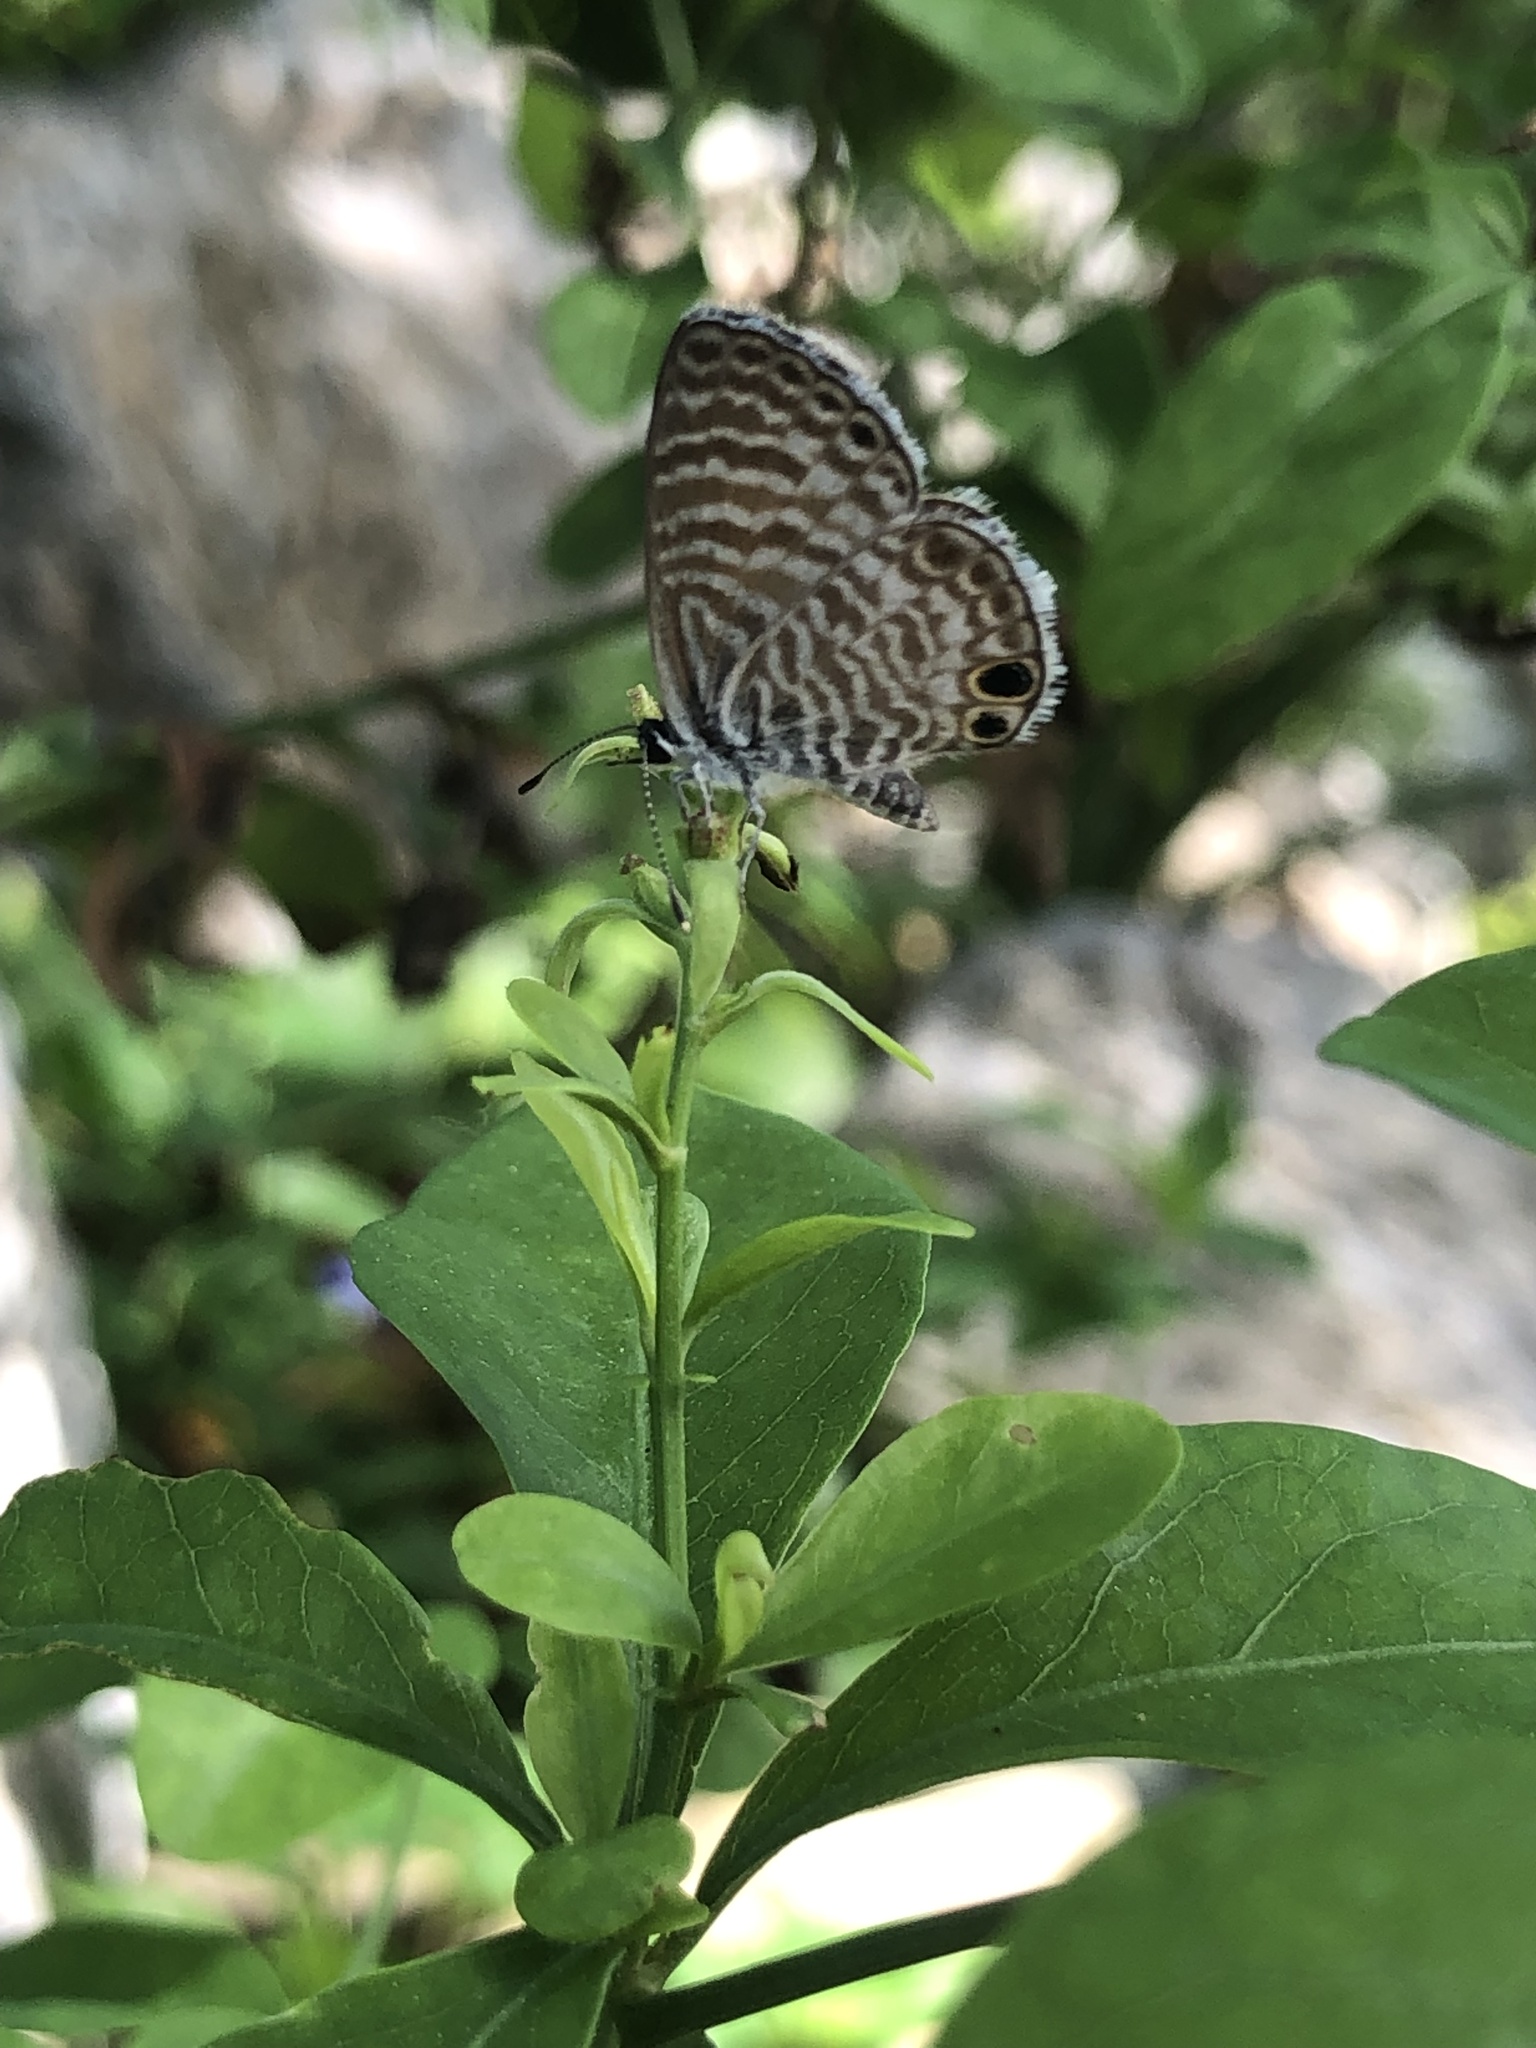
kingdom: Animalia
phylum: Arthropoda
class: Insecta
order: Lepidoptera
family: Lycaenidae
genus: Leptotes
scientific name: Leptotes marina
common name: Marine blue
